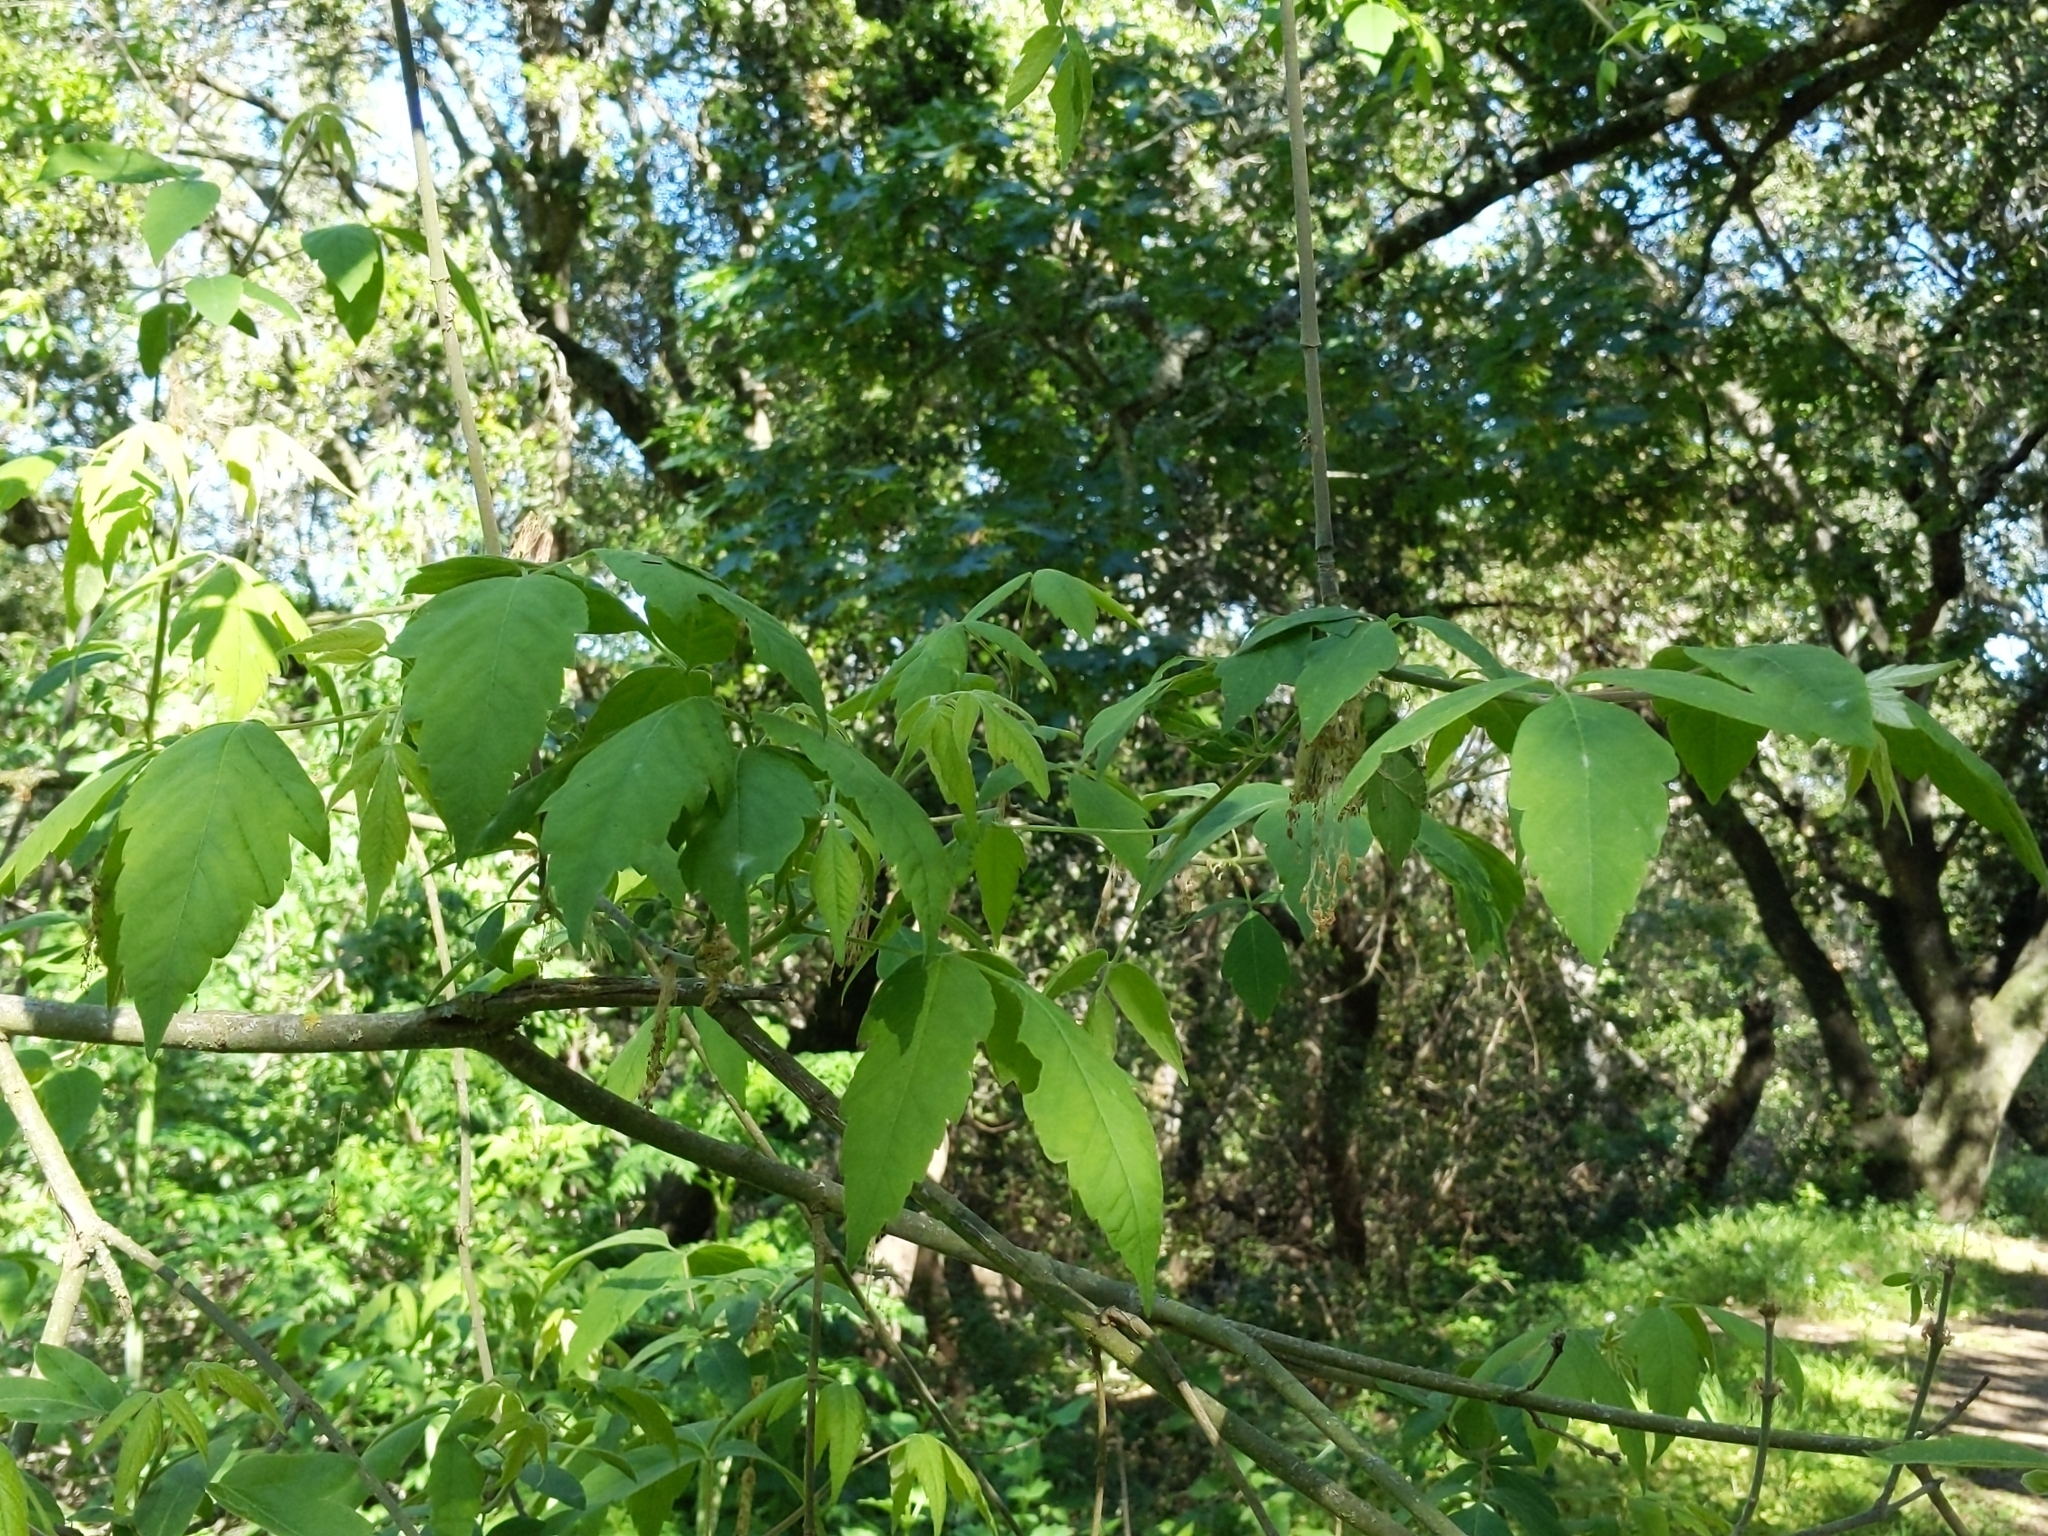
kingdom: Plantae
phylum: Tracheophyta
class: Magnoliopsida
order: Sapindales
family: Sapindaceae
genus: Acer
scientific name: Acer negundo
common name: Ashleaf maple
